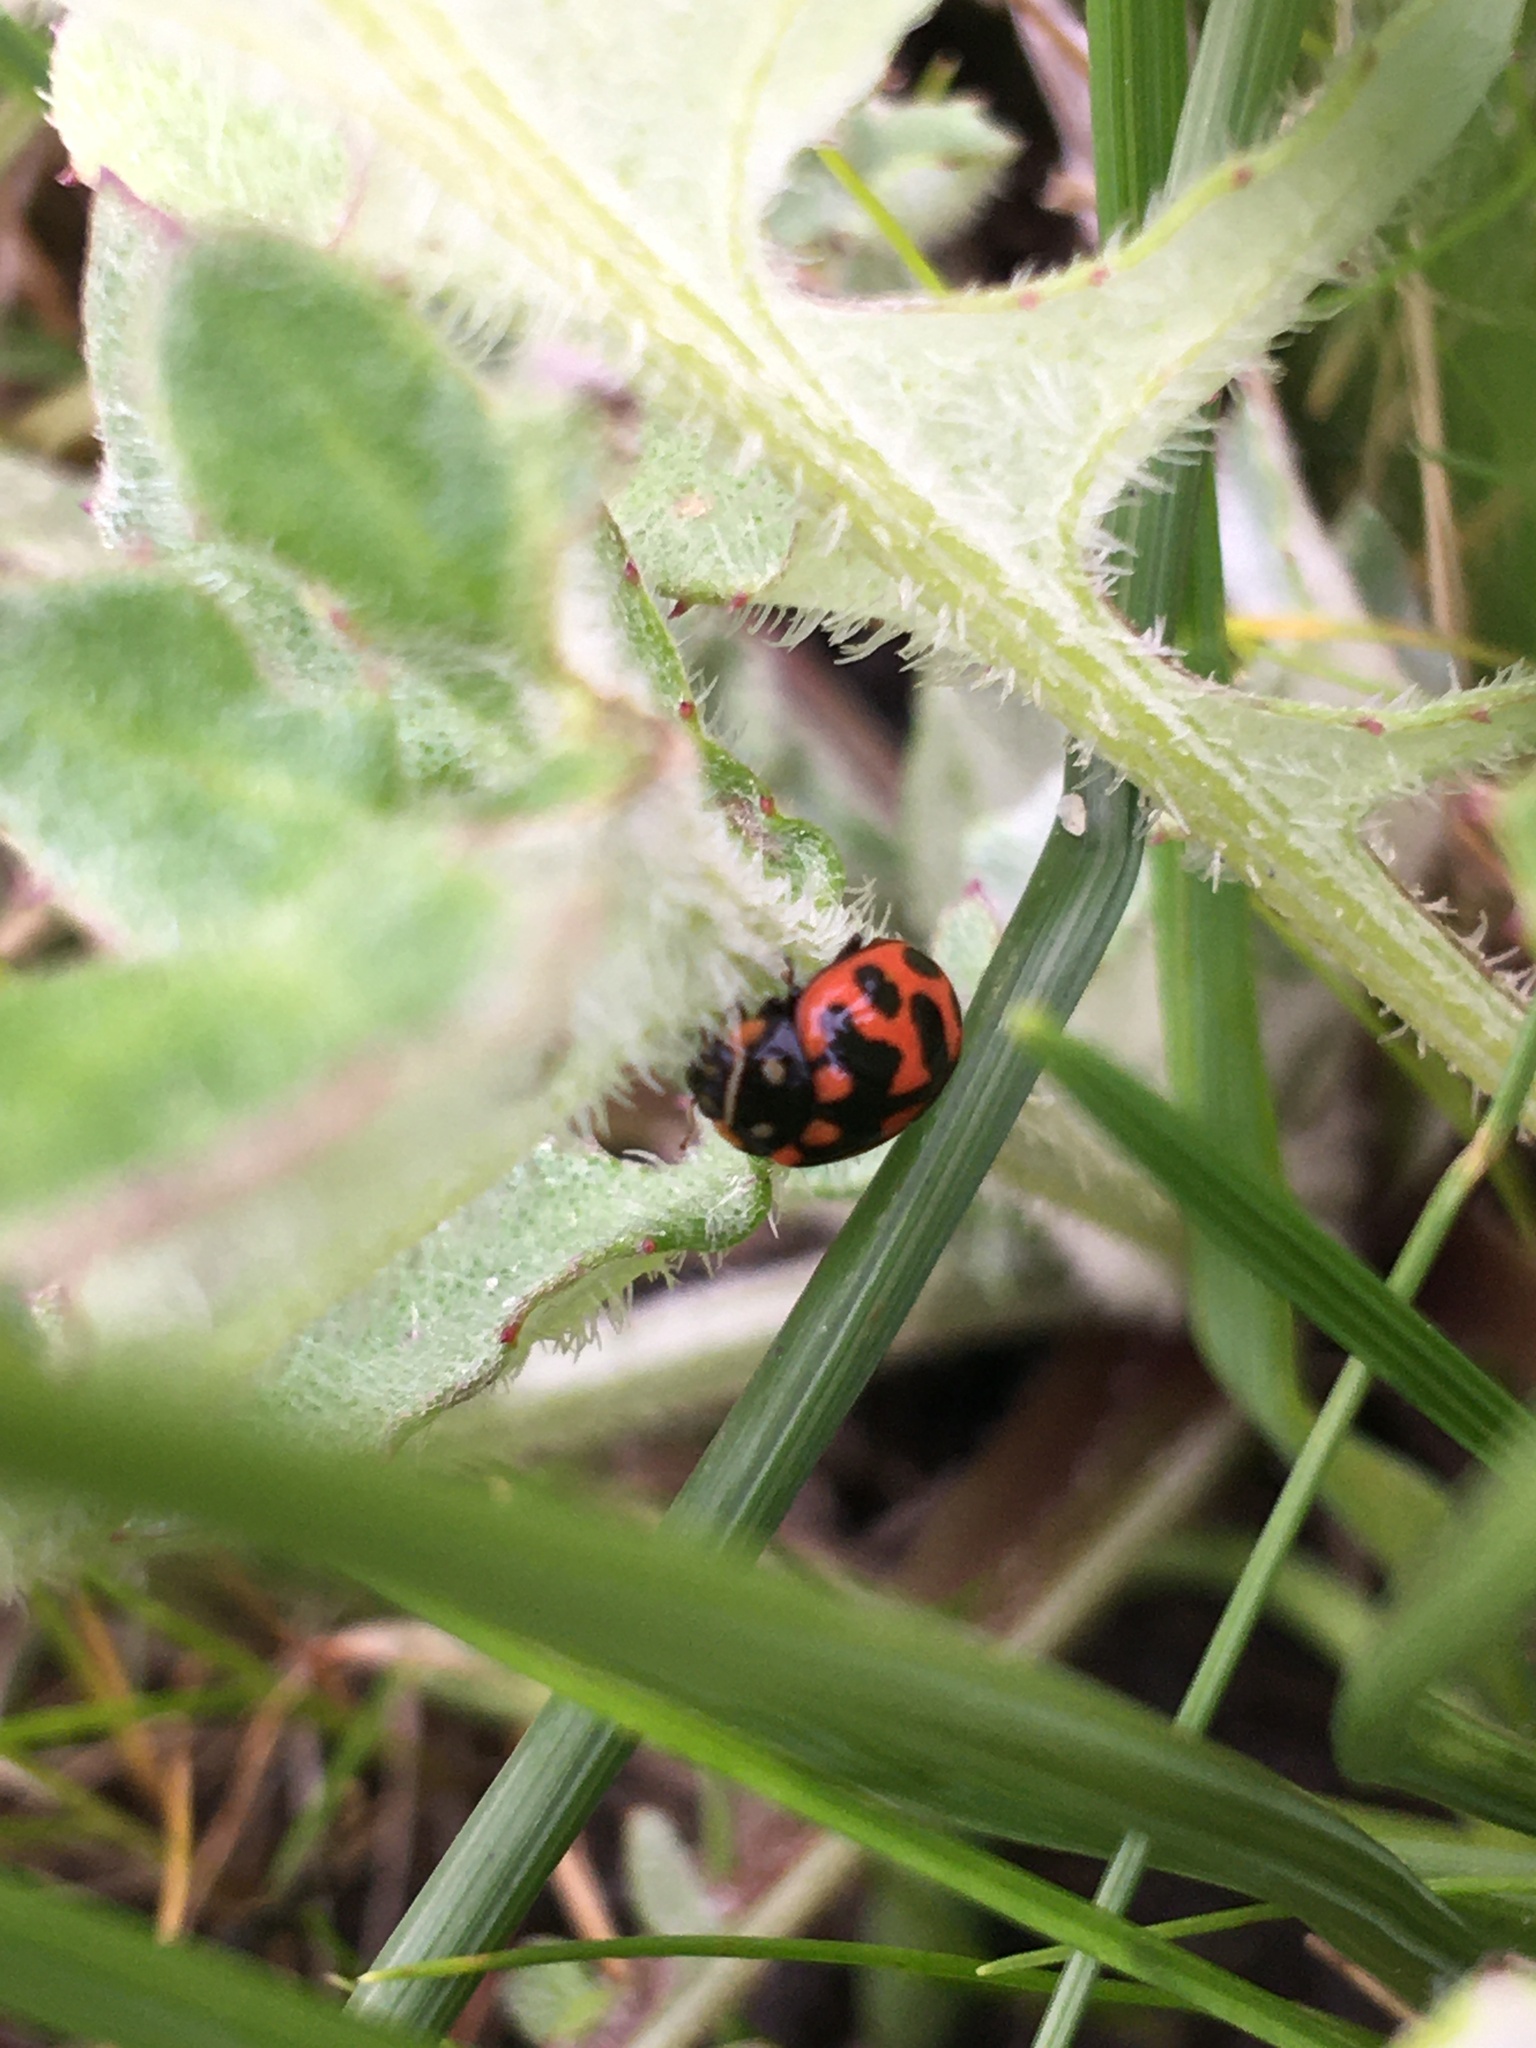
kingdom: Animalia
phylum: Arthropoda
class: Insecta
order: Coleoptera
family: Coccinellidae
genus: Lioadalia
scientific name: Lioadalia flavomaculata
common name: Ladybird beetle
